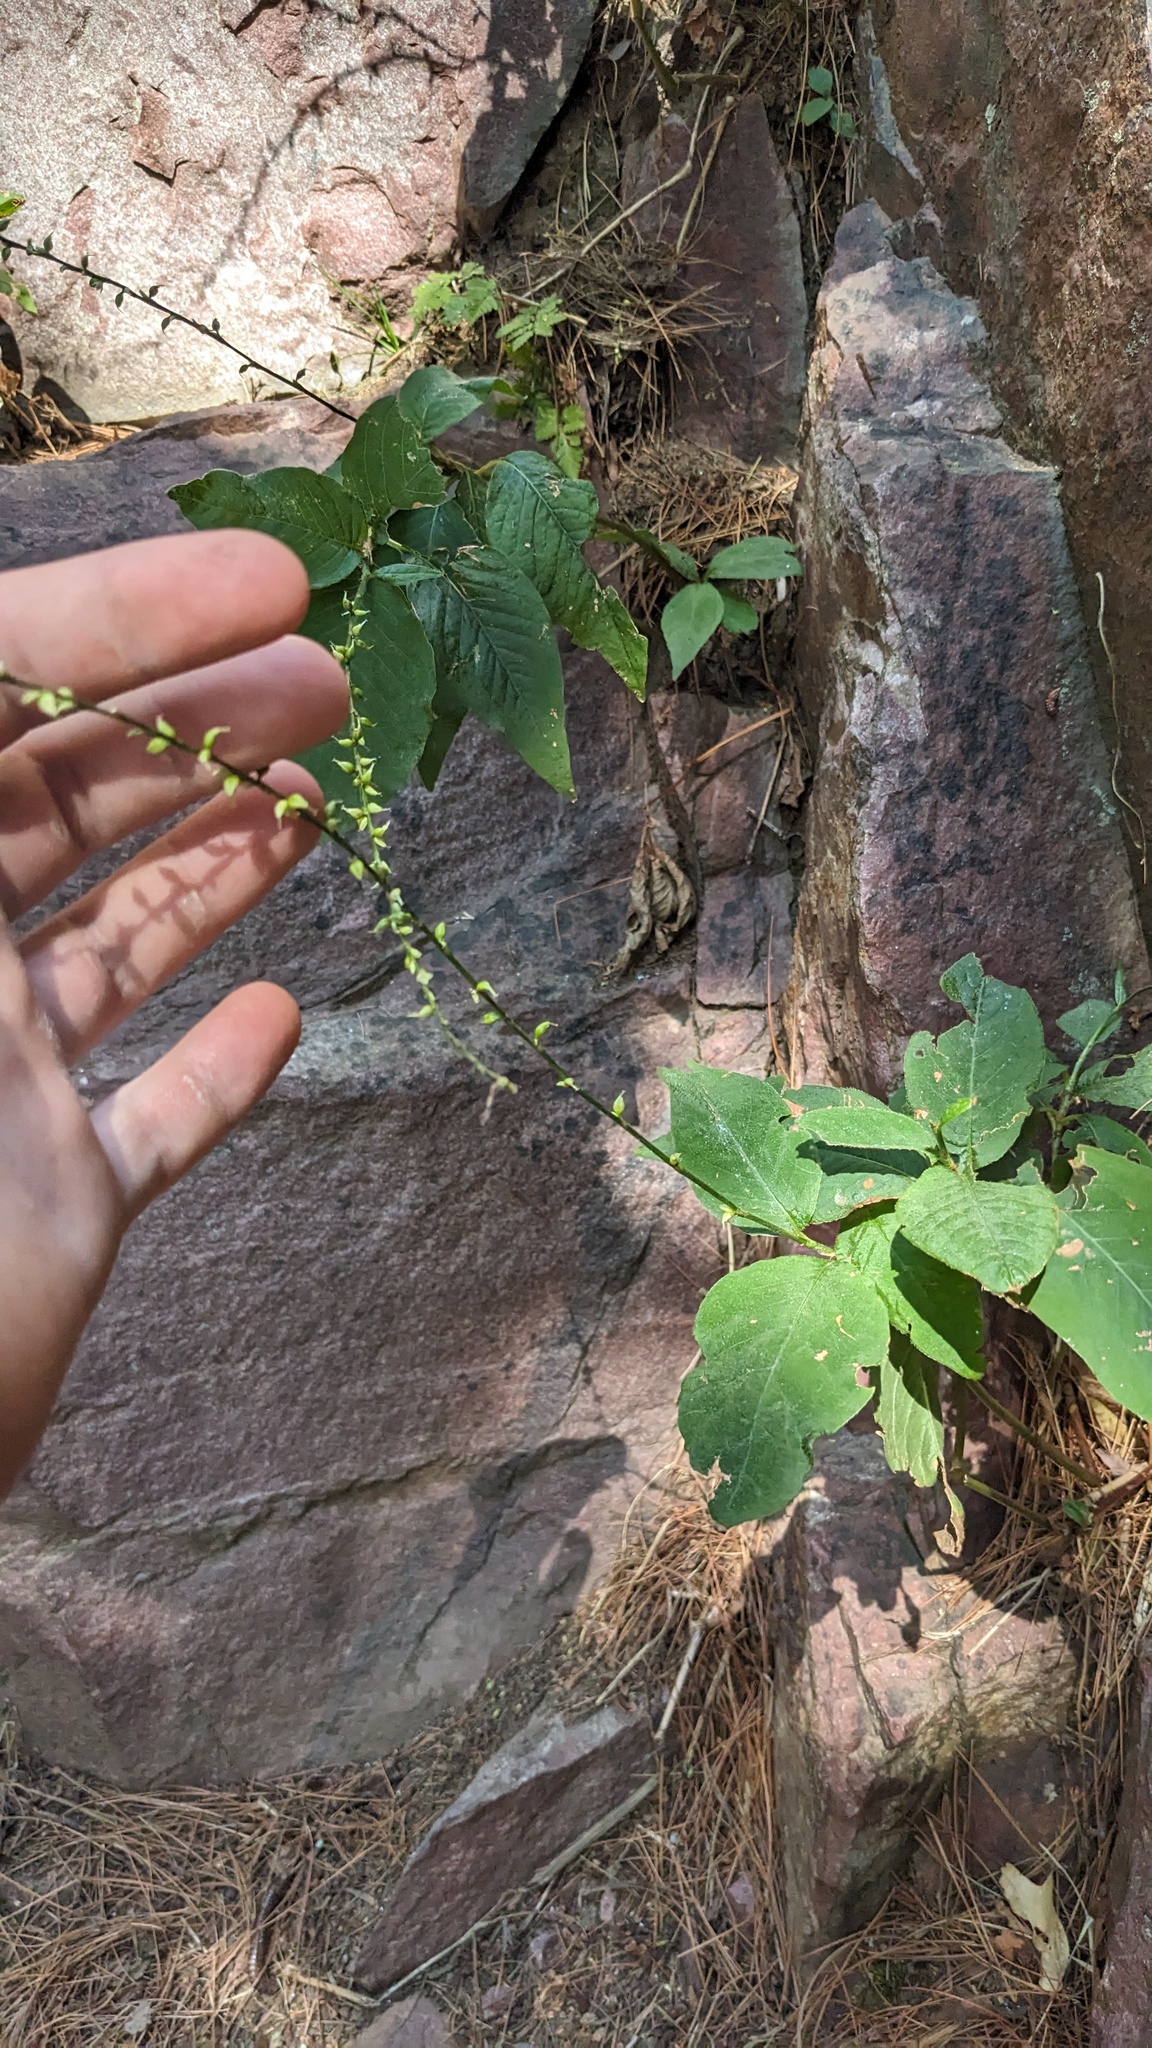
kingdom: Plantae
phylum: Tracheophyta
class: Magnoliopsida
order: Caryophyllales
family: Polygonaceae
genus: Persicaria
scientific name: Persicaria virginiana
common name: Jumpseed
